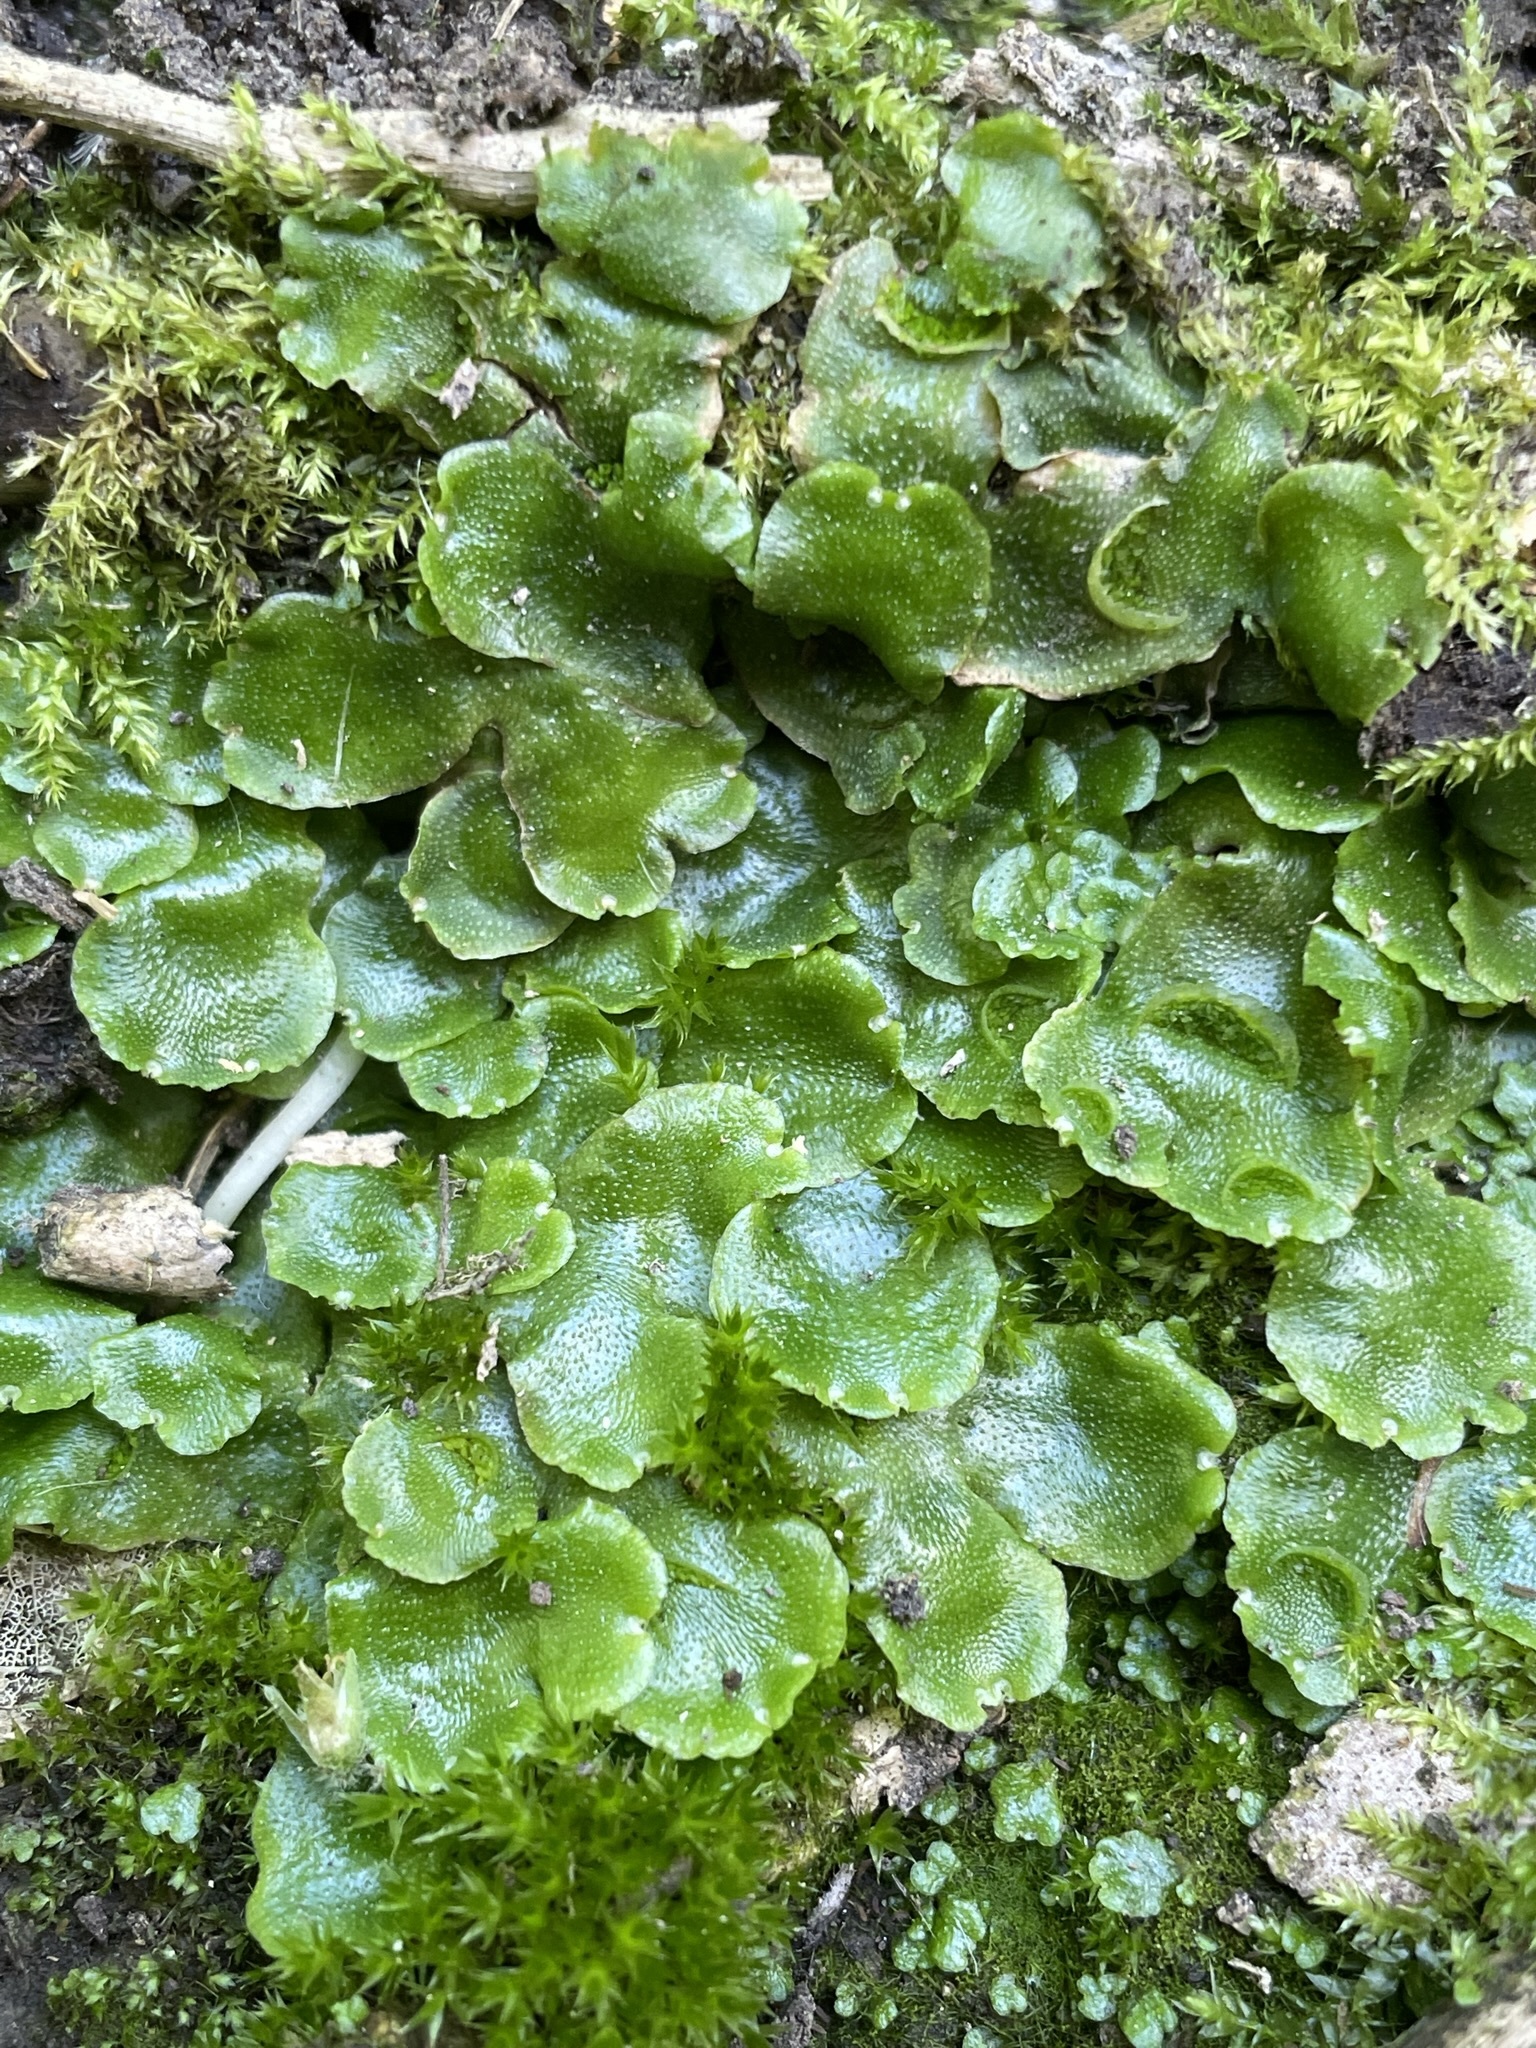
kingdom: Plantae
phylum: Marchantiophyta
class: Marchantiopsida
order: Lunulariales
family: Lunulariaceae
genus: Lunularia
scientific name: Lunularia cruciata
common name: Crescent-cup liverwort
